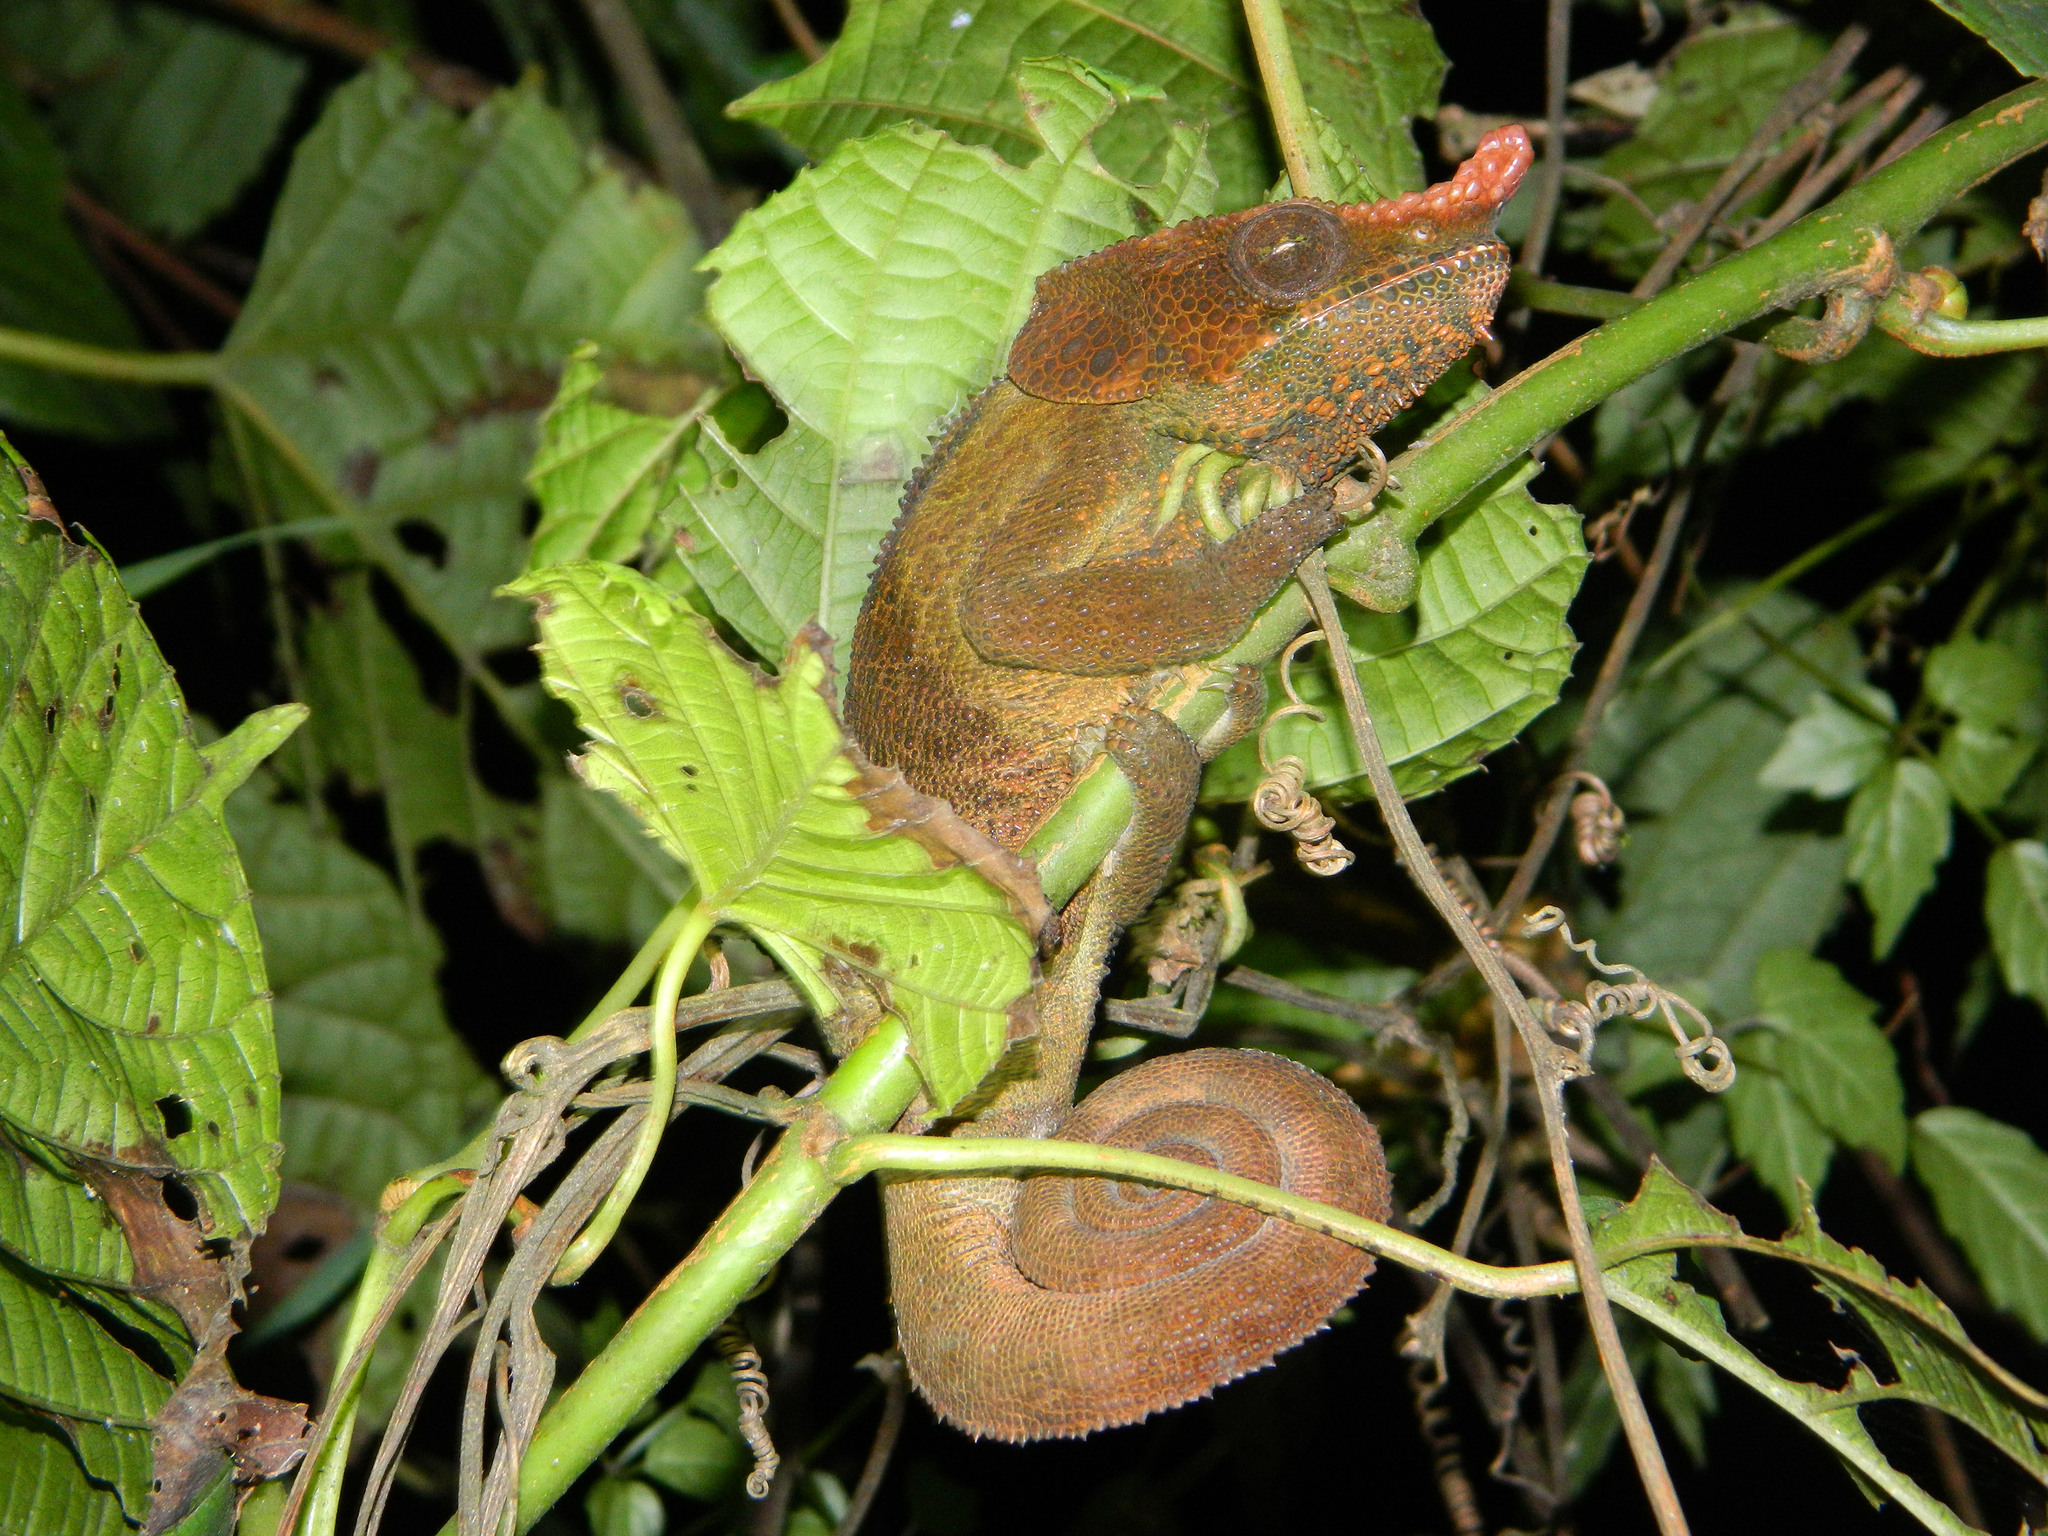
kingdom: Animalia
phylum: Chordata
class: Squamata
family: Chamaeleonidae
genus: Calumma
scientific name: Calumma crypticum
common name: Cryptic chameleon
